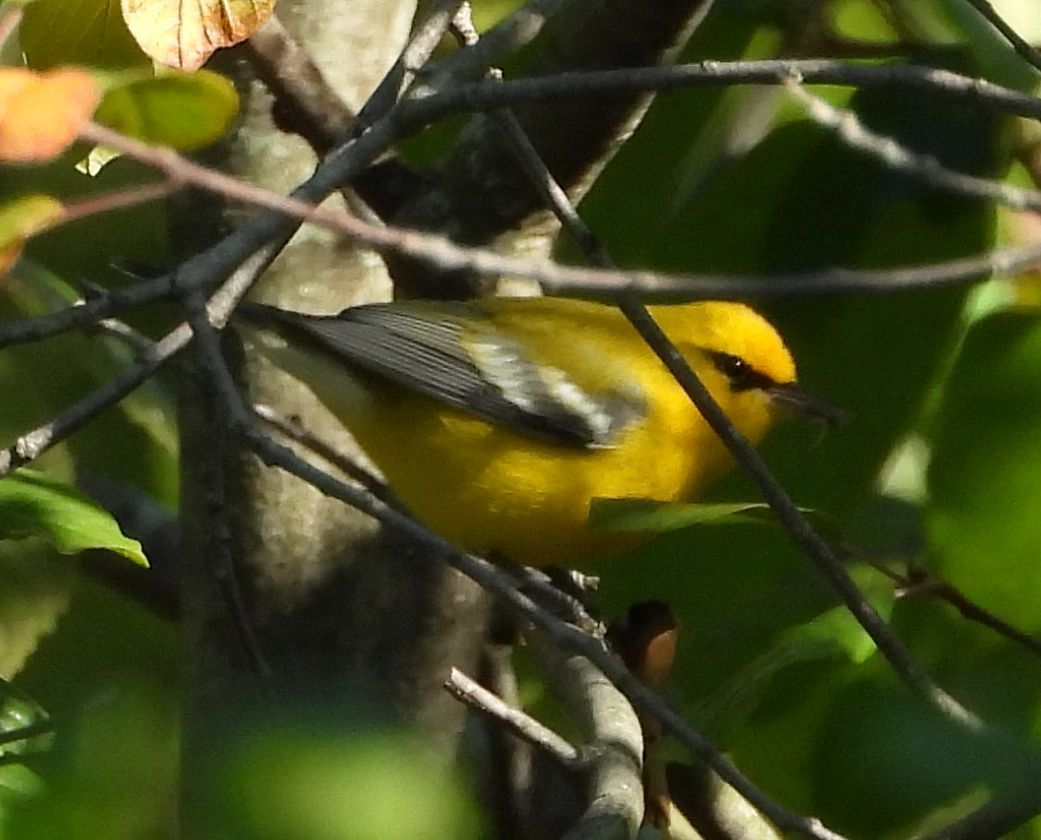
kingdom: Animalia
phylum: Chordata
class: Aves
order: Passeriformes
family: Parulidae
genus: Vermivora
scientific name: Vermivora cyanoptera
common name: Blue-winged warbler
